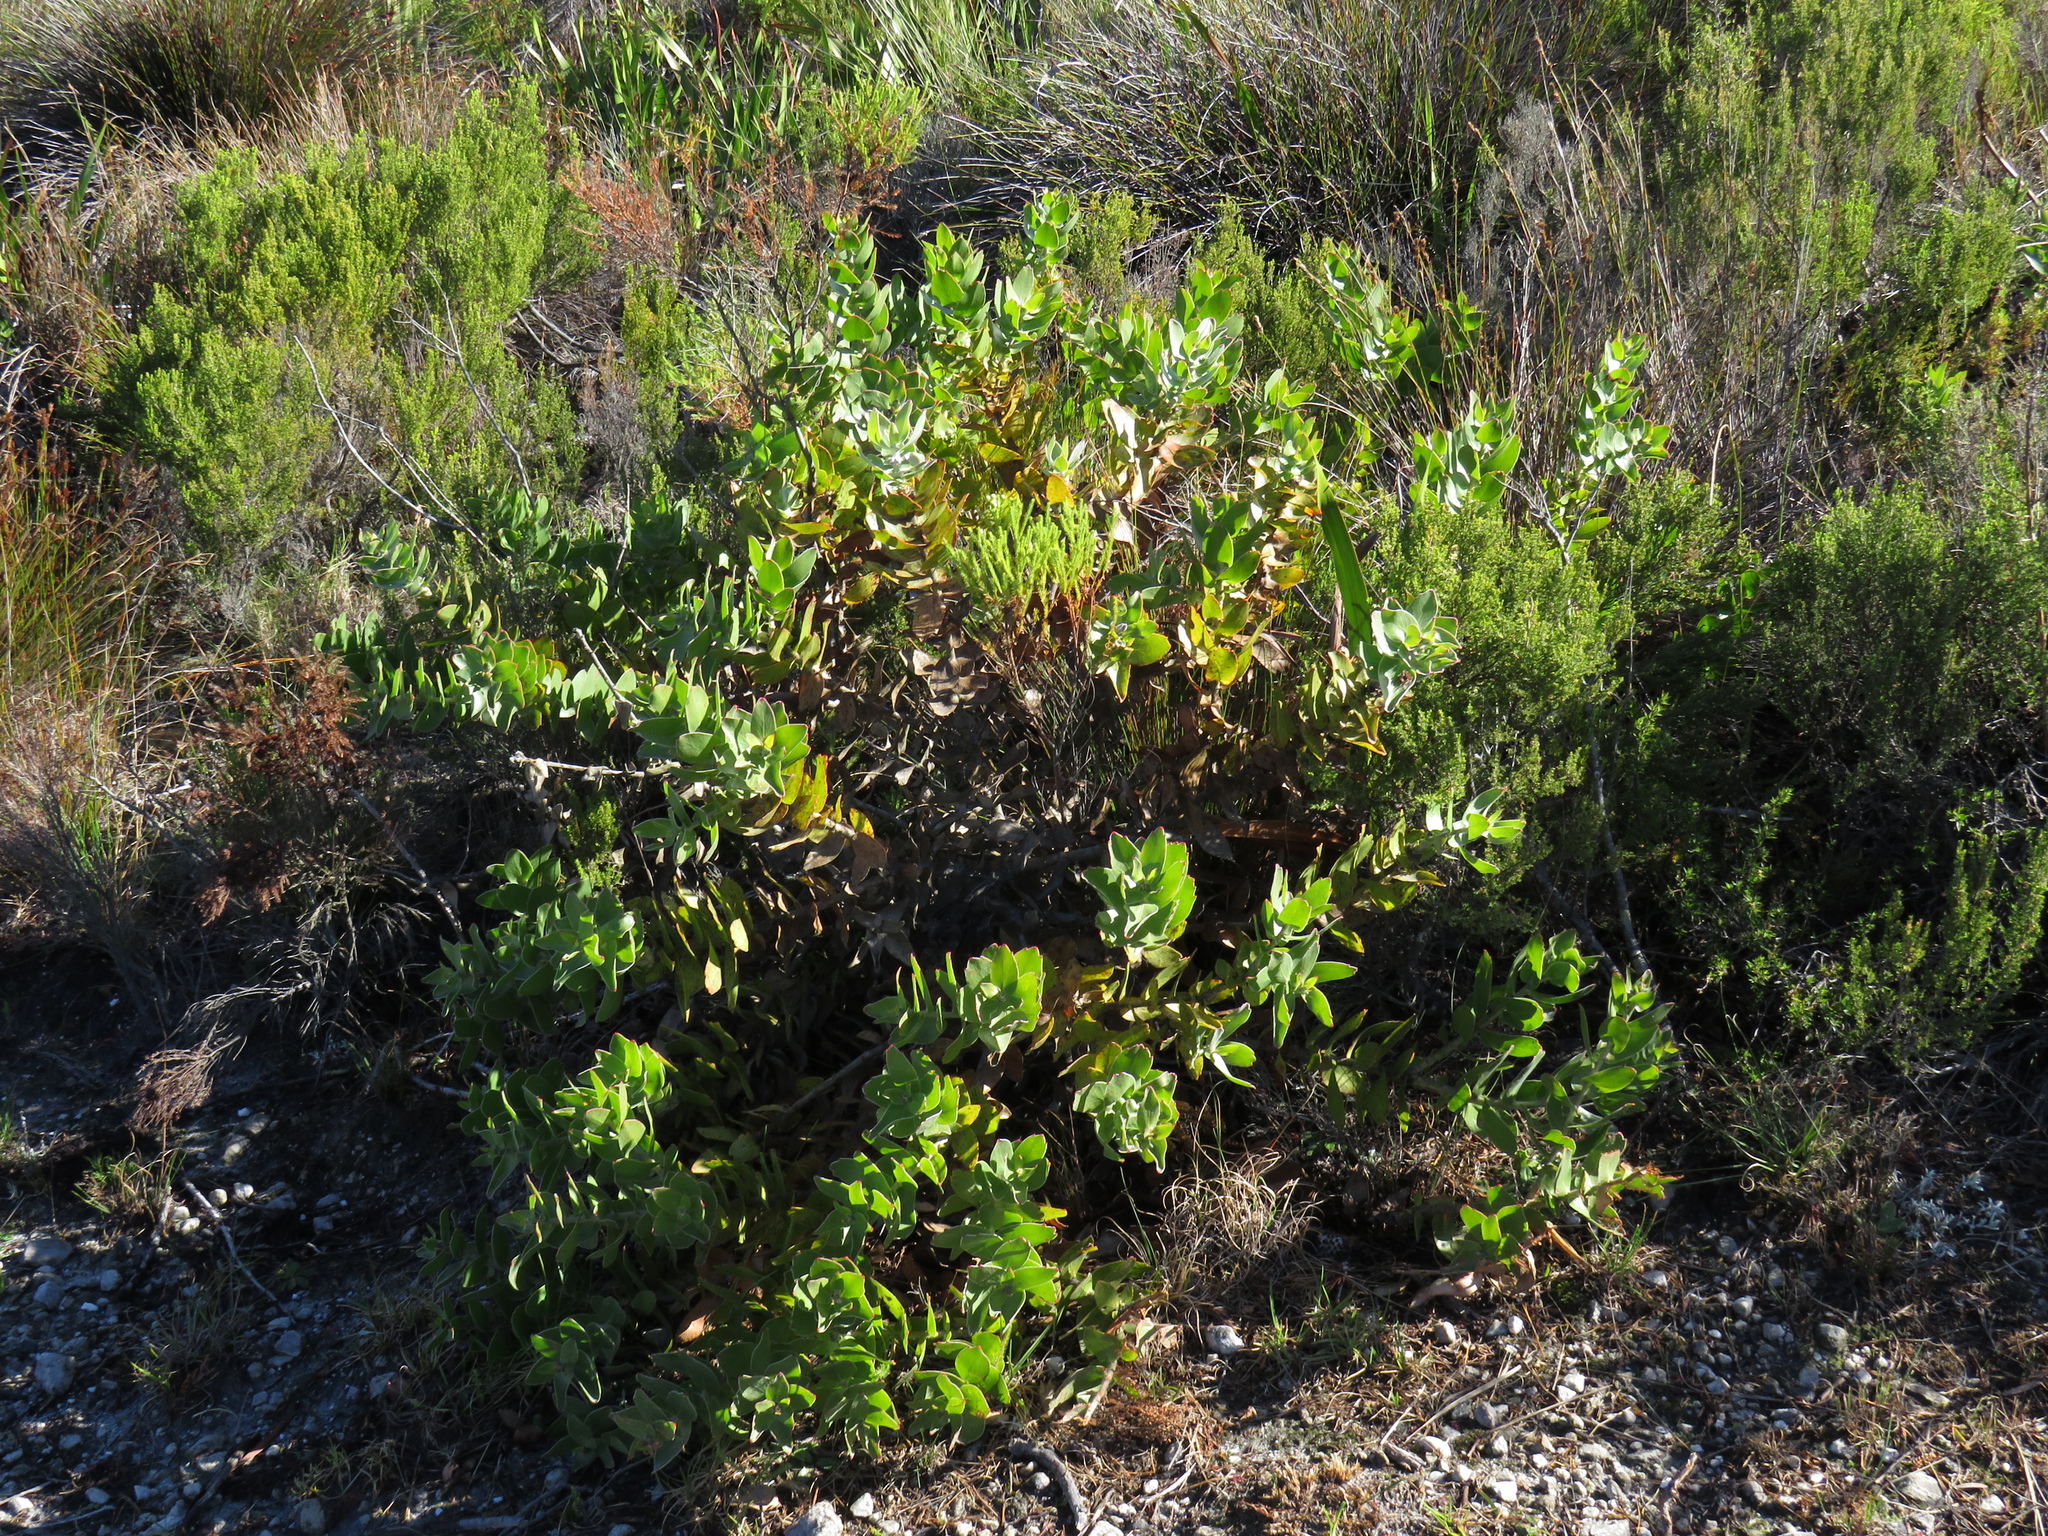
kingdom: Plantae
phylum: Tracheophyta
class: Magnoliopsida
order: Proteales
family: Proteaceae
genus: Leucospermum
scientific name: Leucospermum cordifolium
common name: Red pincushion-protea
